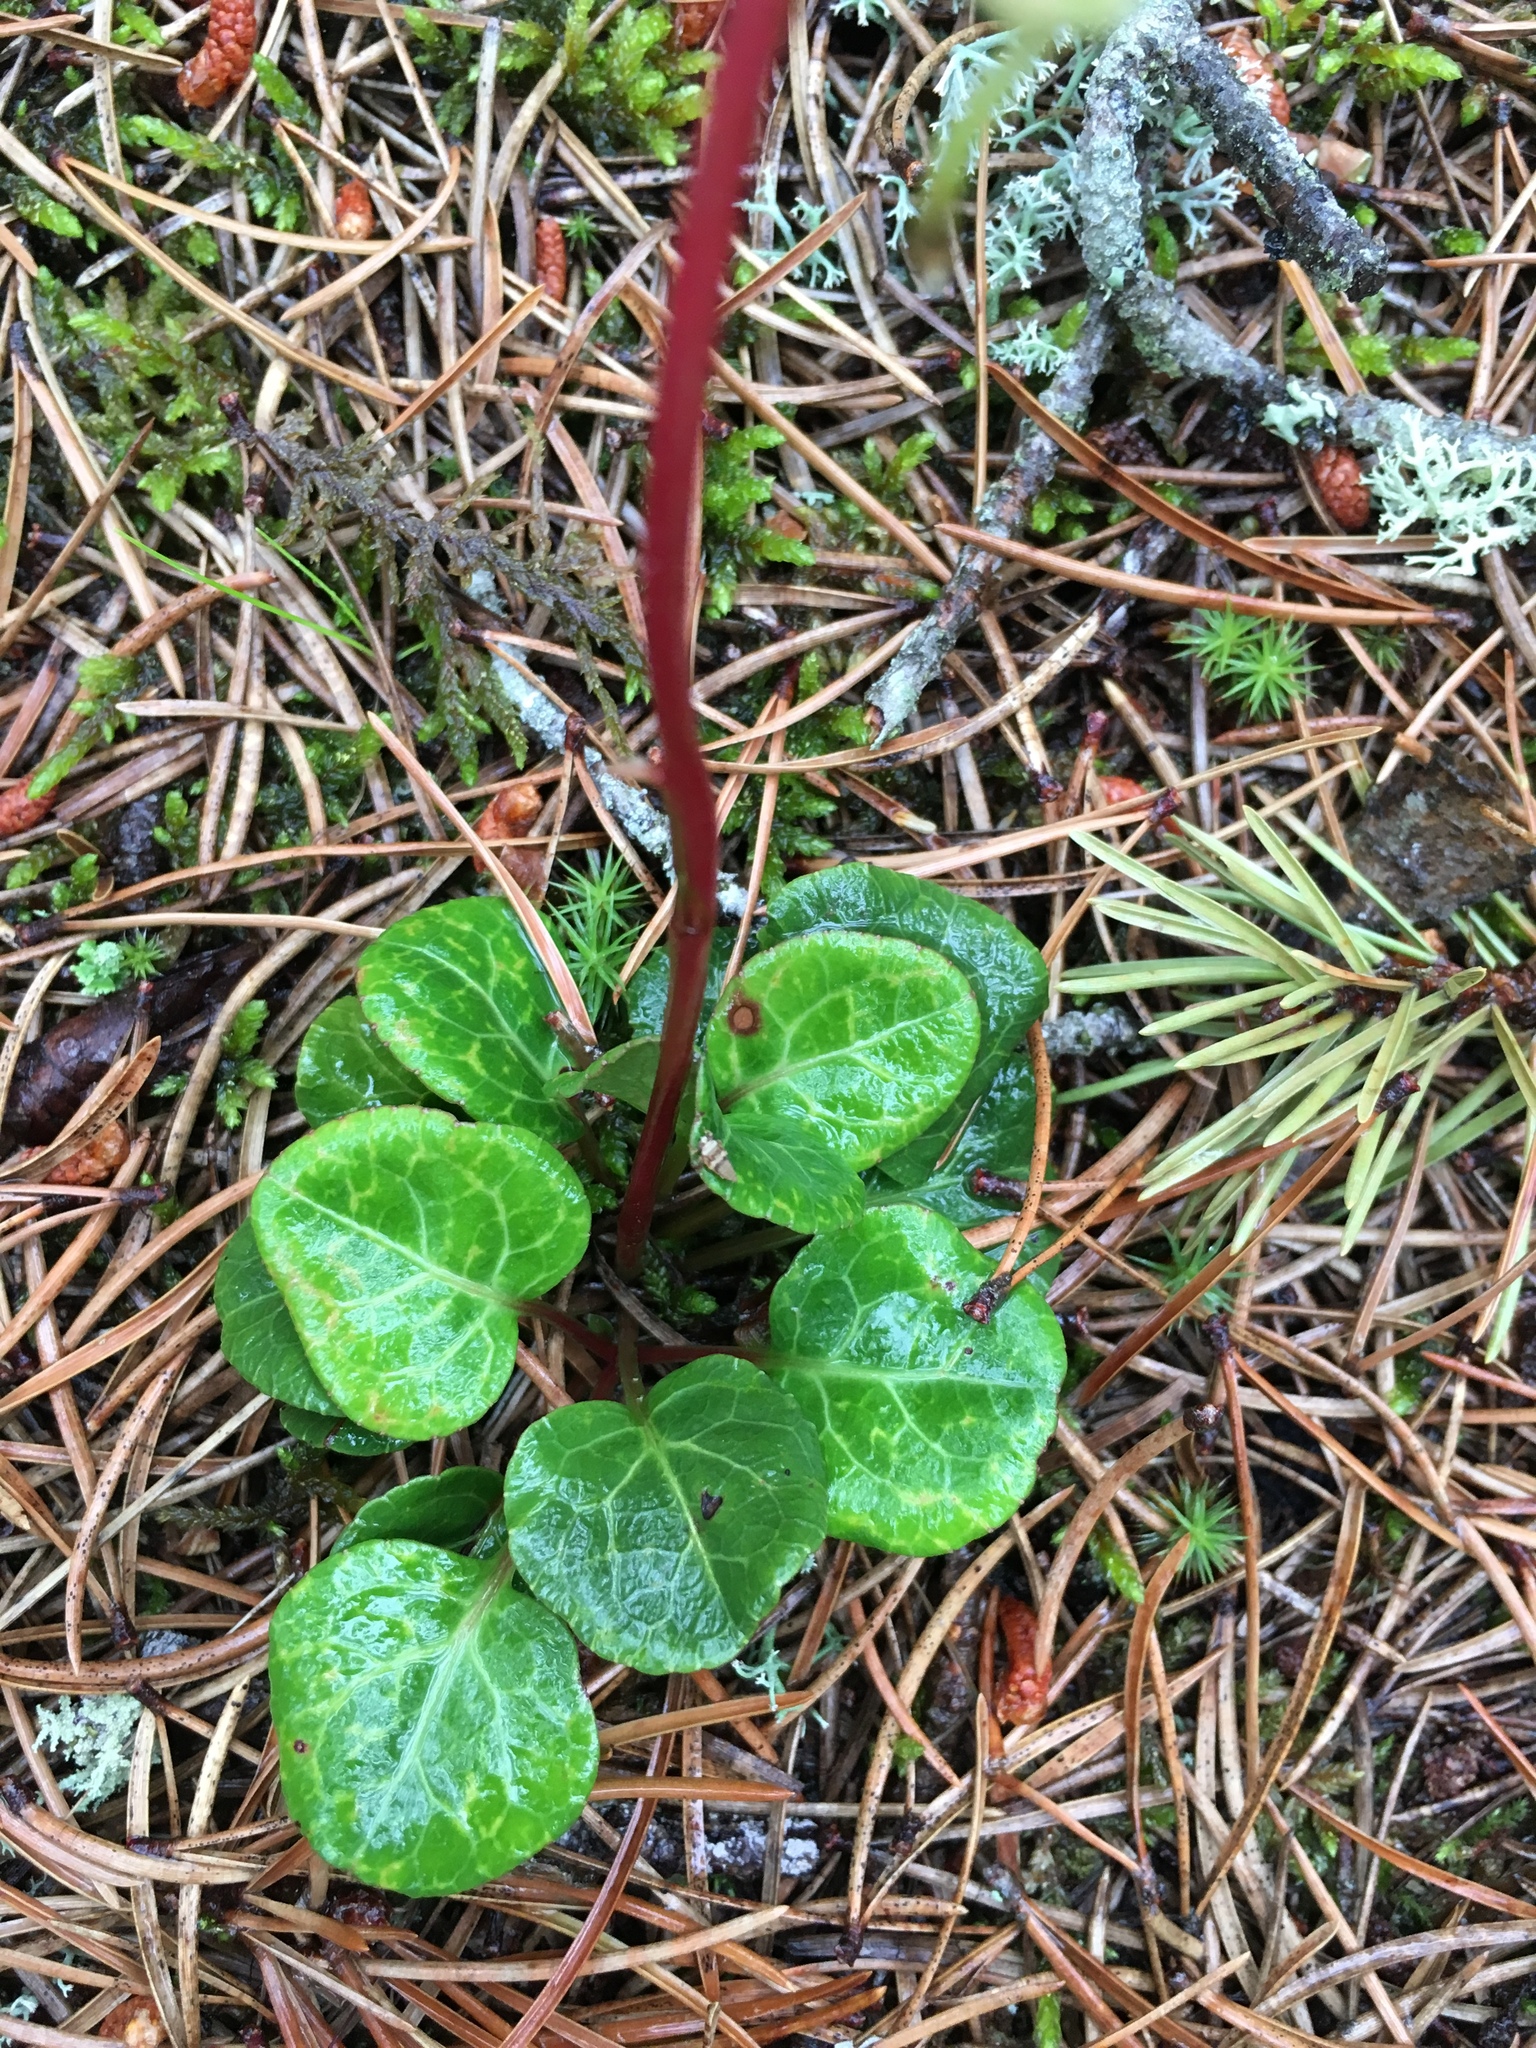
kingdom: Plantae
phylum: Tracheophyta
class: Magnoliopsida
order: Ericales
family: Ericaceae
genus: Pyrola
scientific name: Pyrola americana
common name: American wintergreen
